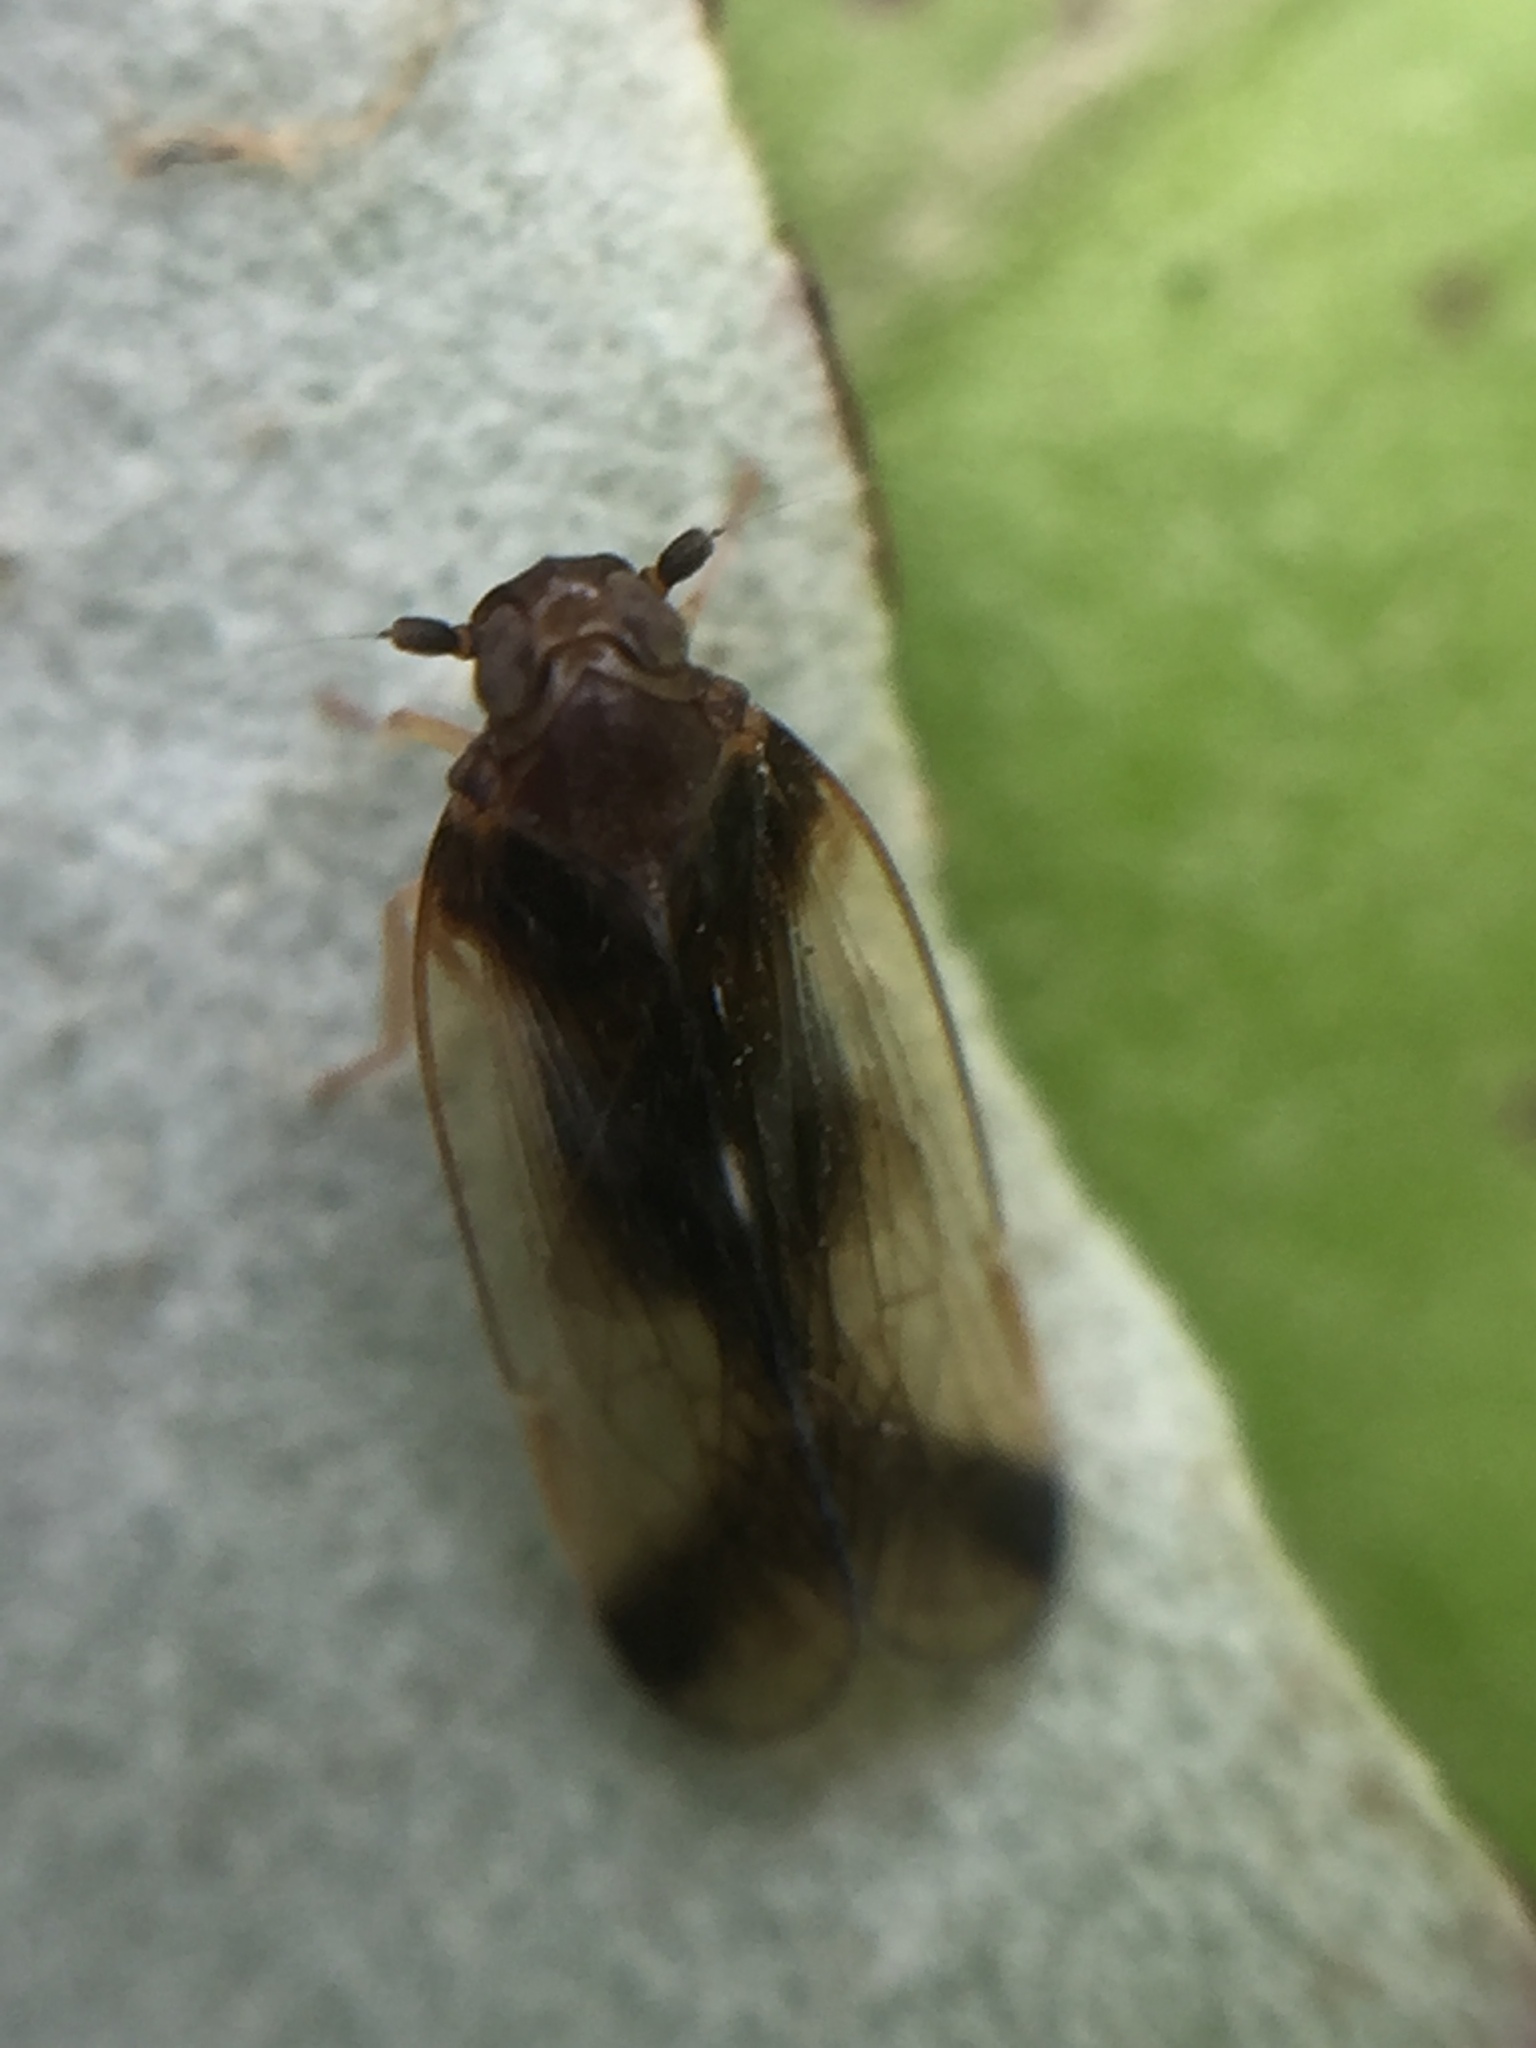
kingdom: Animalia
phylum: Arthropoda
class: Insecta
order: Hemiptera
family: Cixiidae
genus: Tiriteana
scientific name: Tiriteana clarkei
